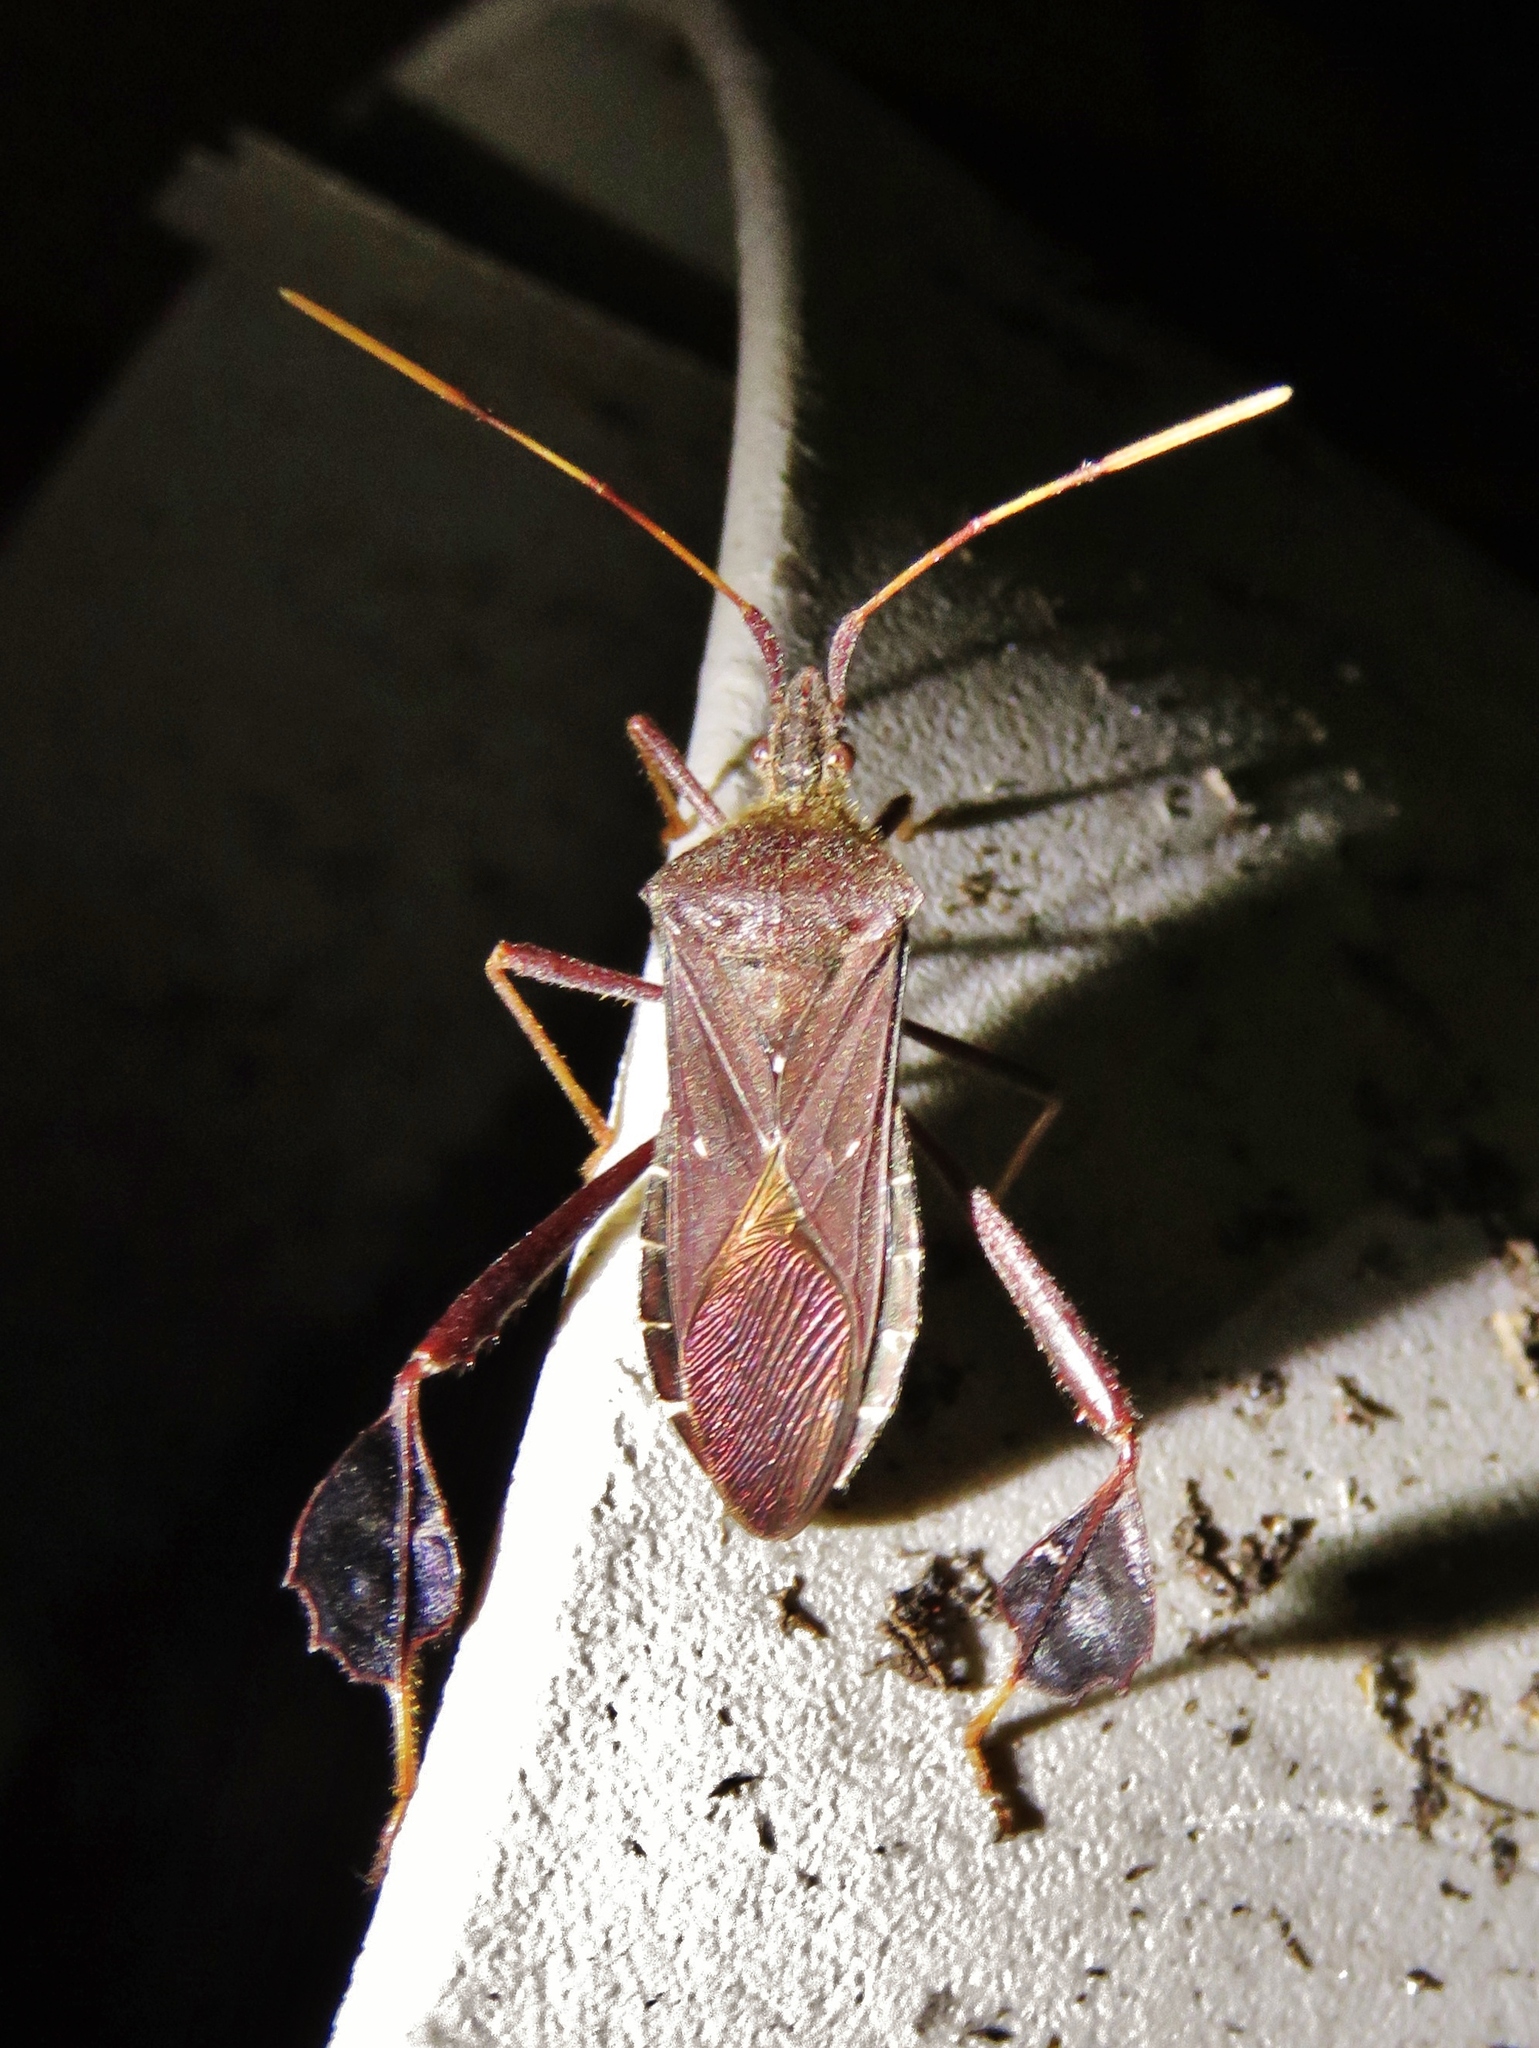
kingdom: Animalia
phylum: Arthropoda
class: Insecta
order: Hemiptera
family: Coreidae
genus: Leptoglossus
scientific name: Leptoglossus oppositus
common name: Northern leaf-footed bug
